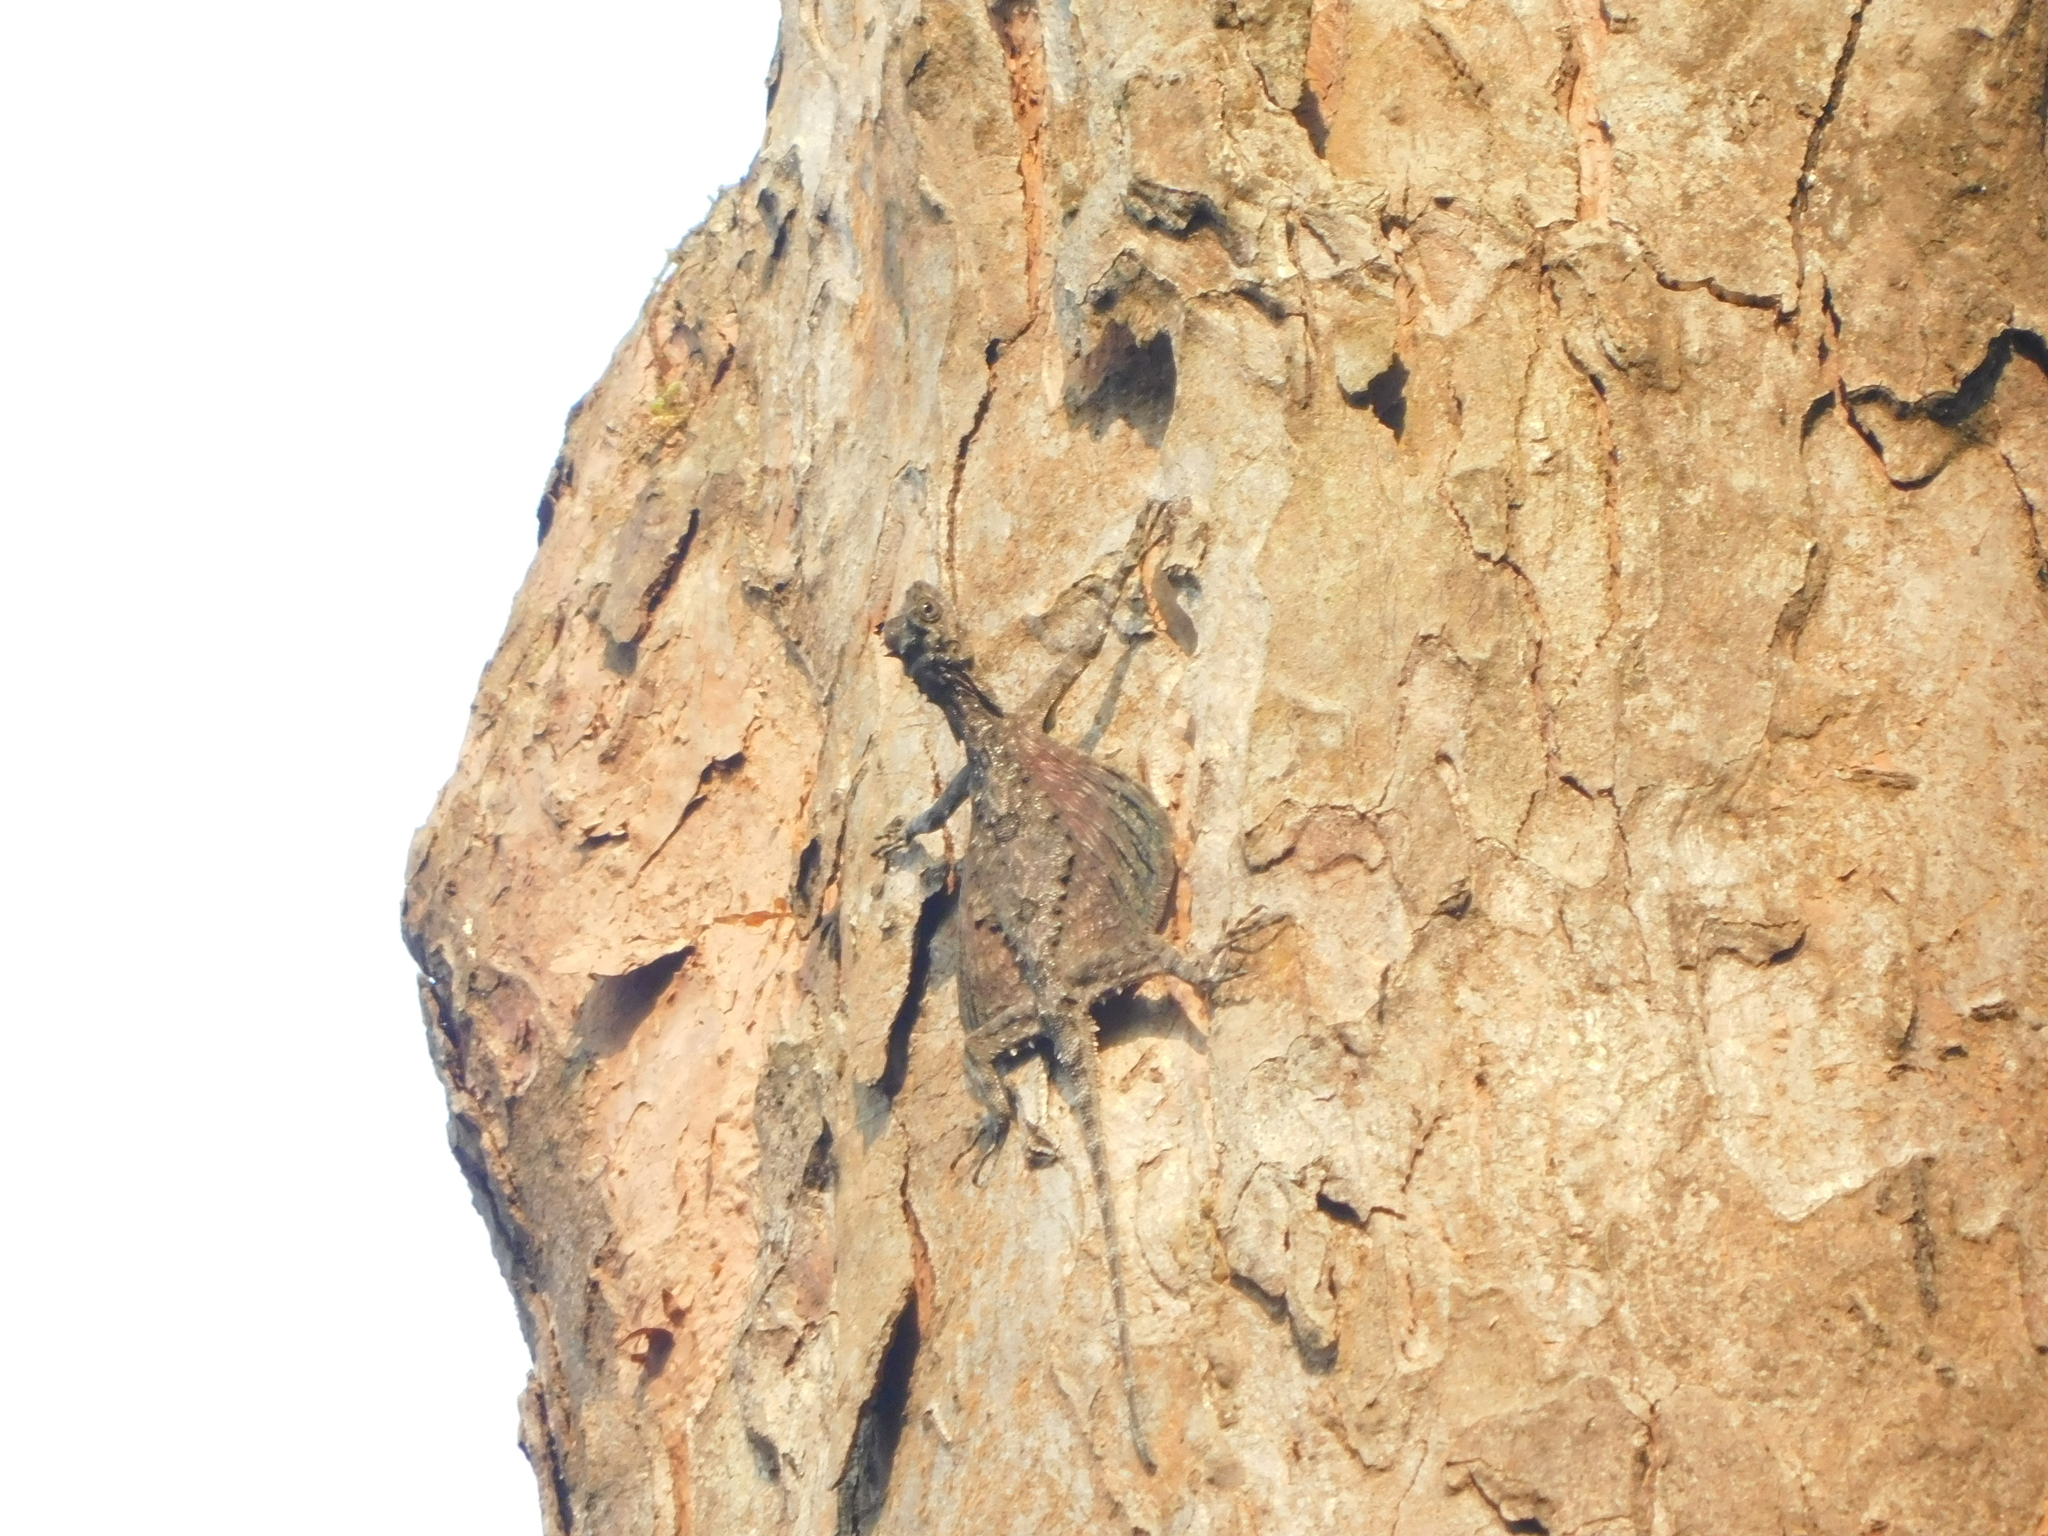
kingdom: Animalia
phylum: Chordata
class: Squamata
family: Agamidae
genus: Draco
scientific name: Draco dussumieri
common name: Southern flying lizard
